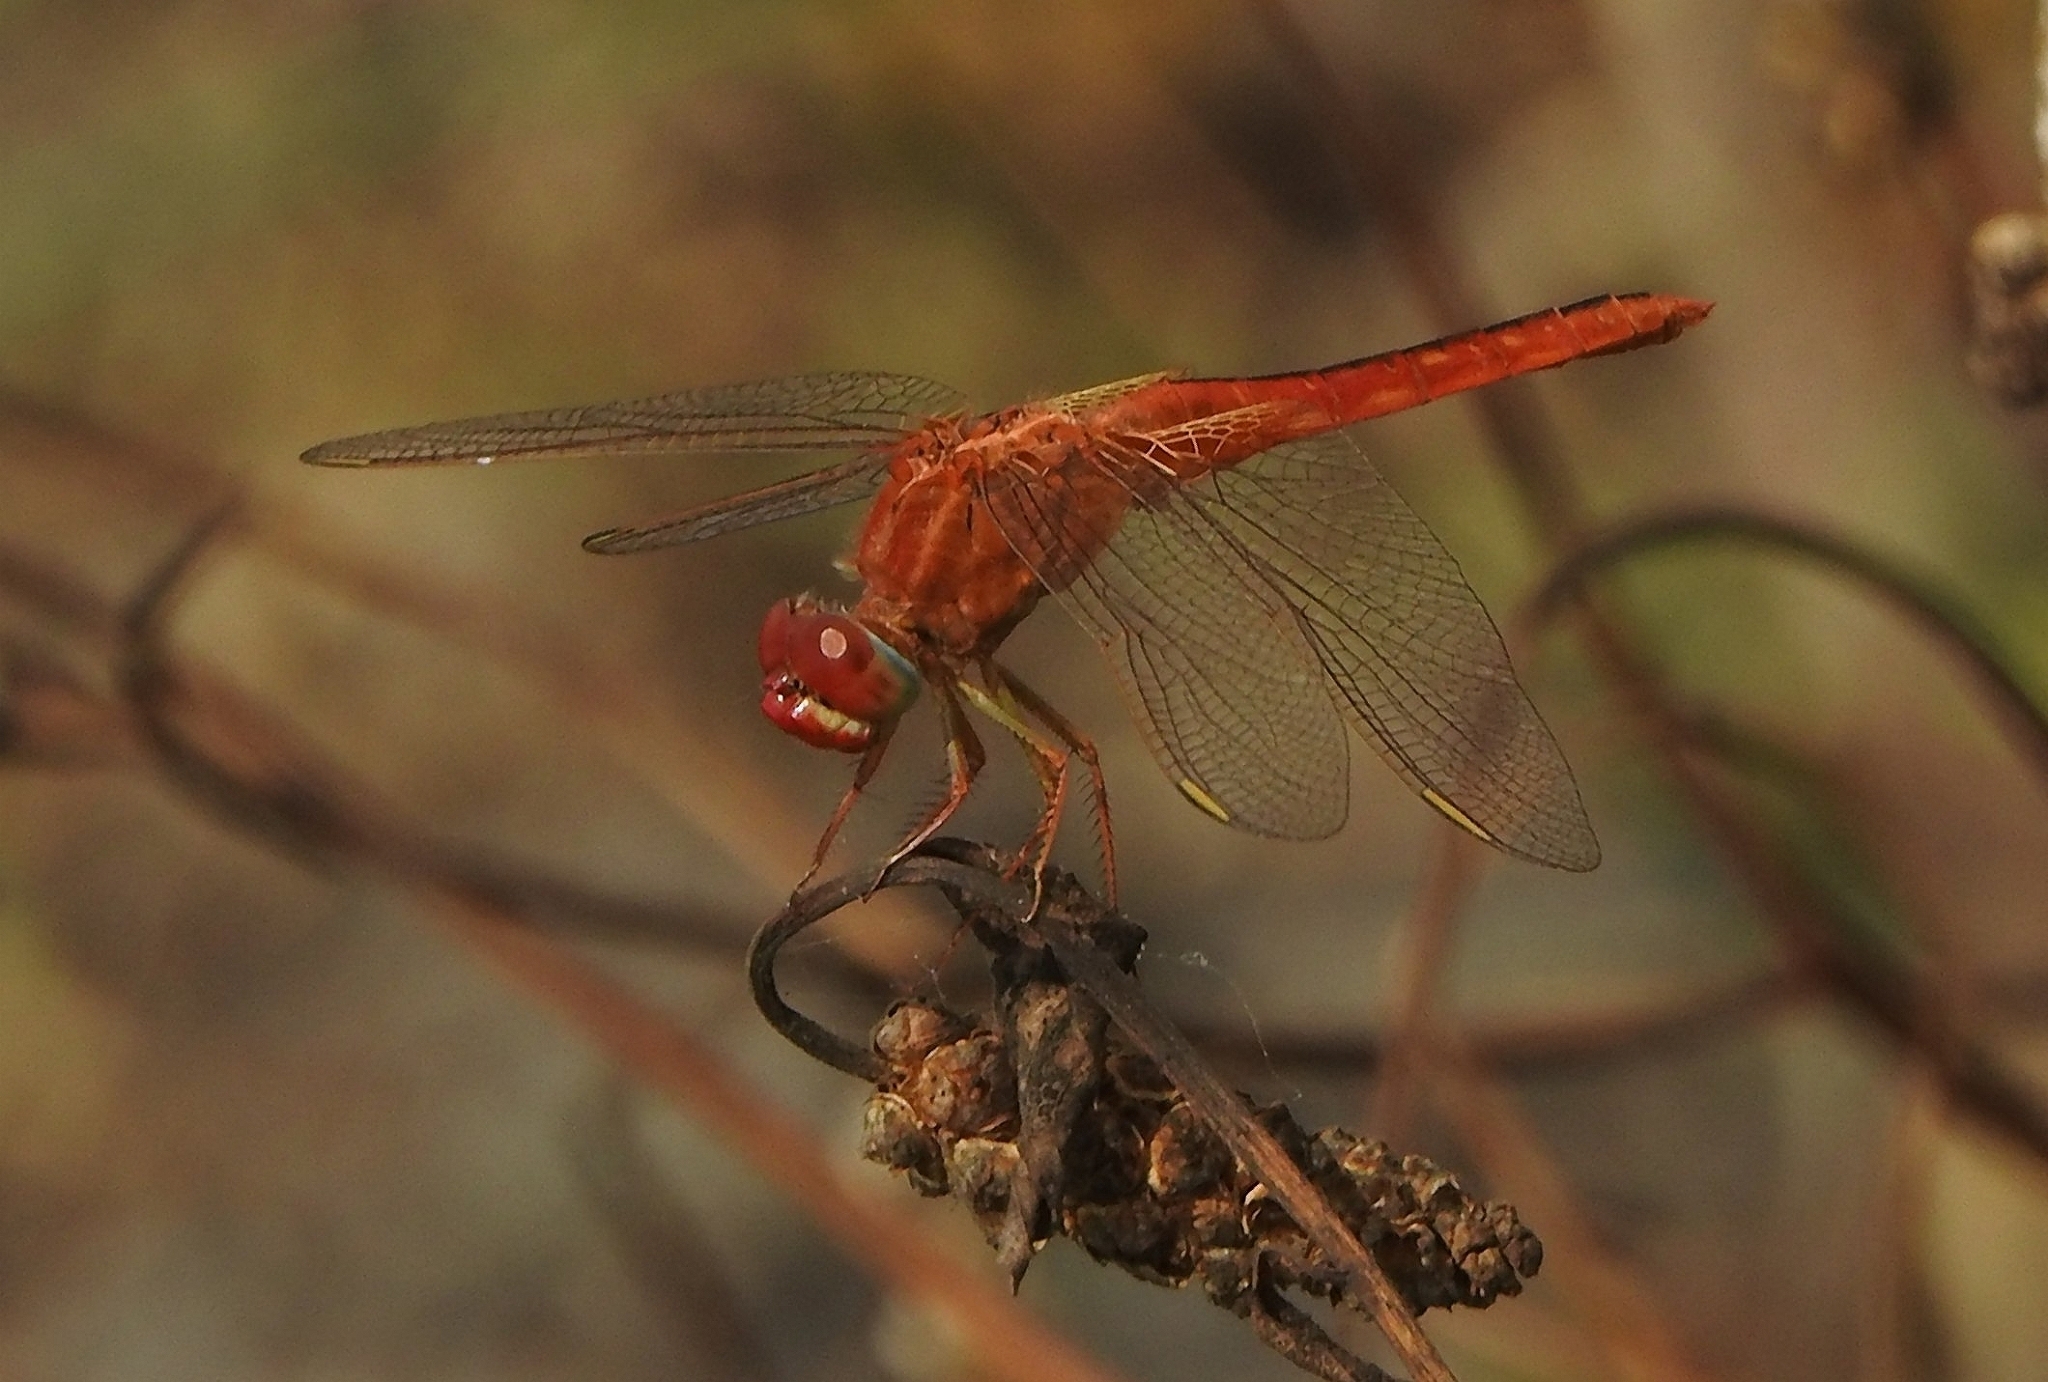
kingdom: Animalia
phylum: Arthropoda
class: Insecta
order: Odonata
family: Libellulidae
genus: Crocothemis
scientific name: Crocothemis servilia
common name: Scarlet skimmer
